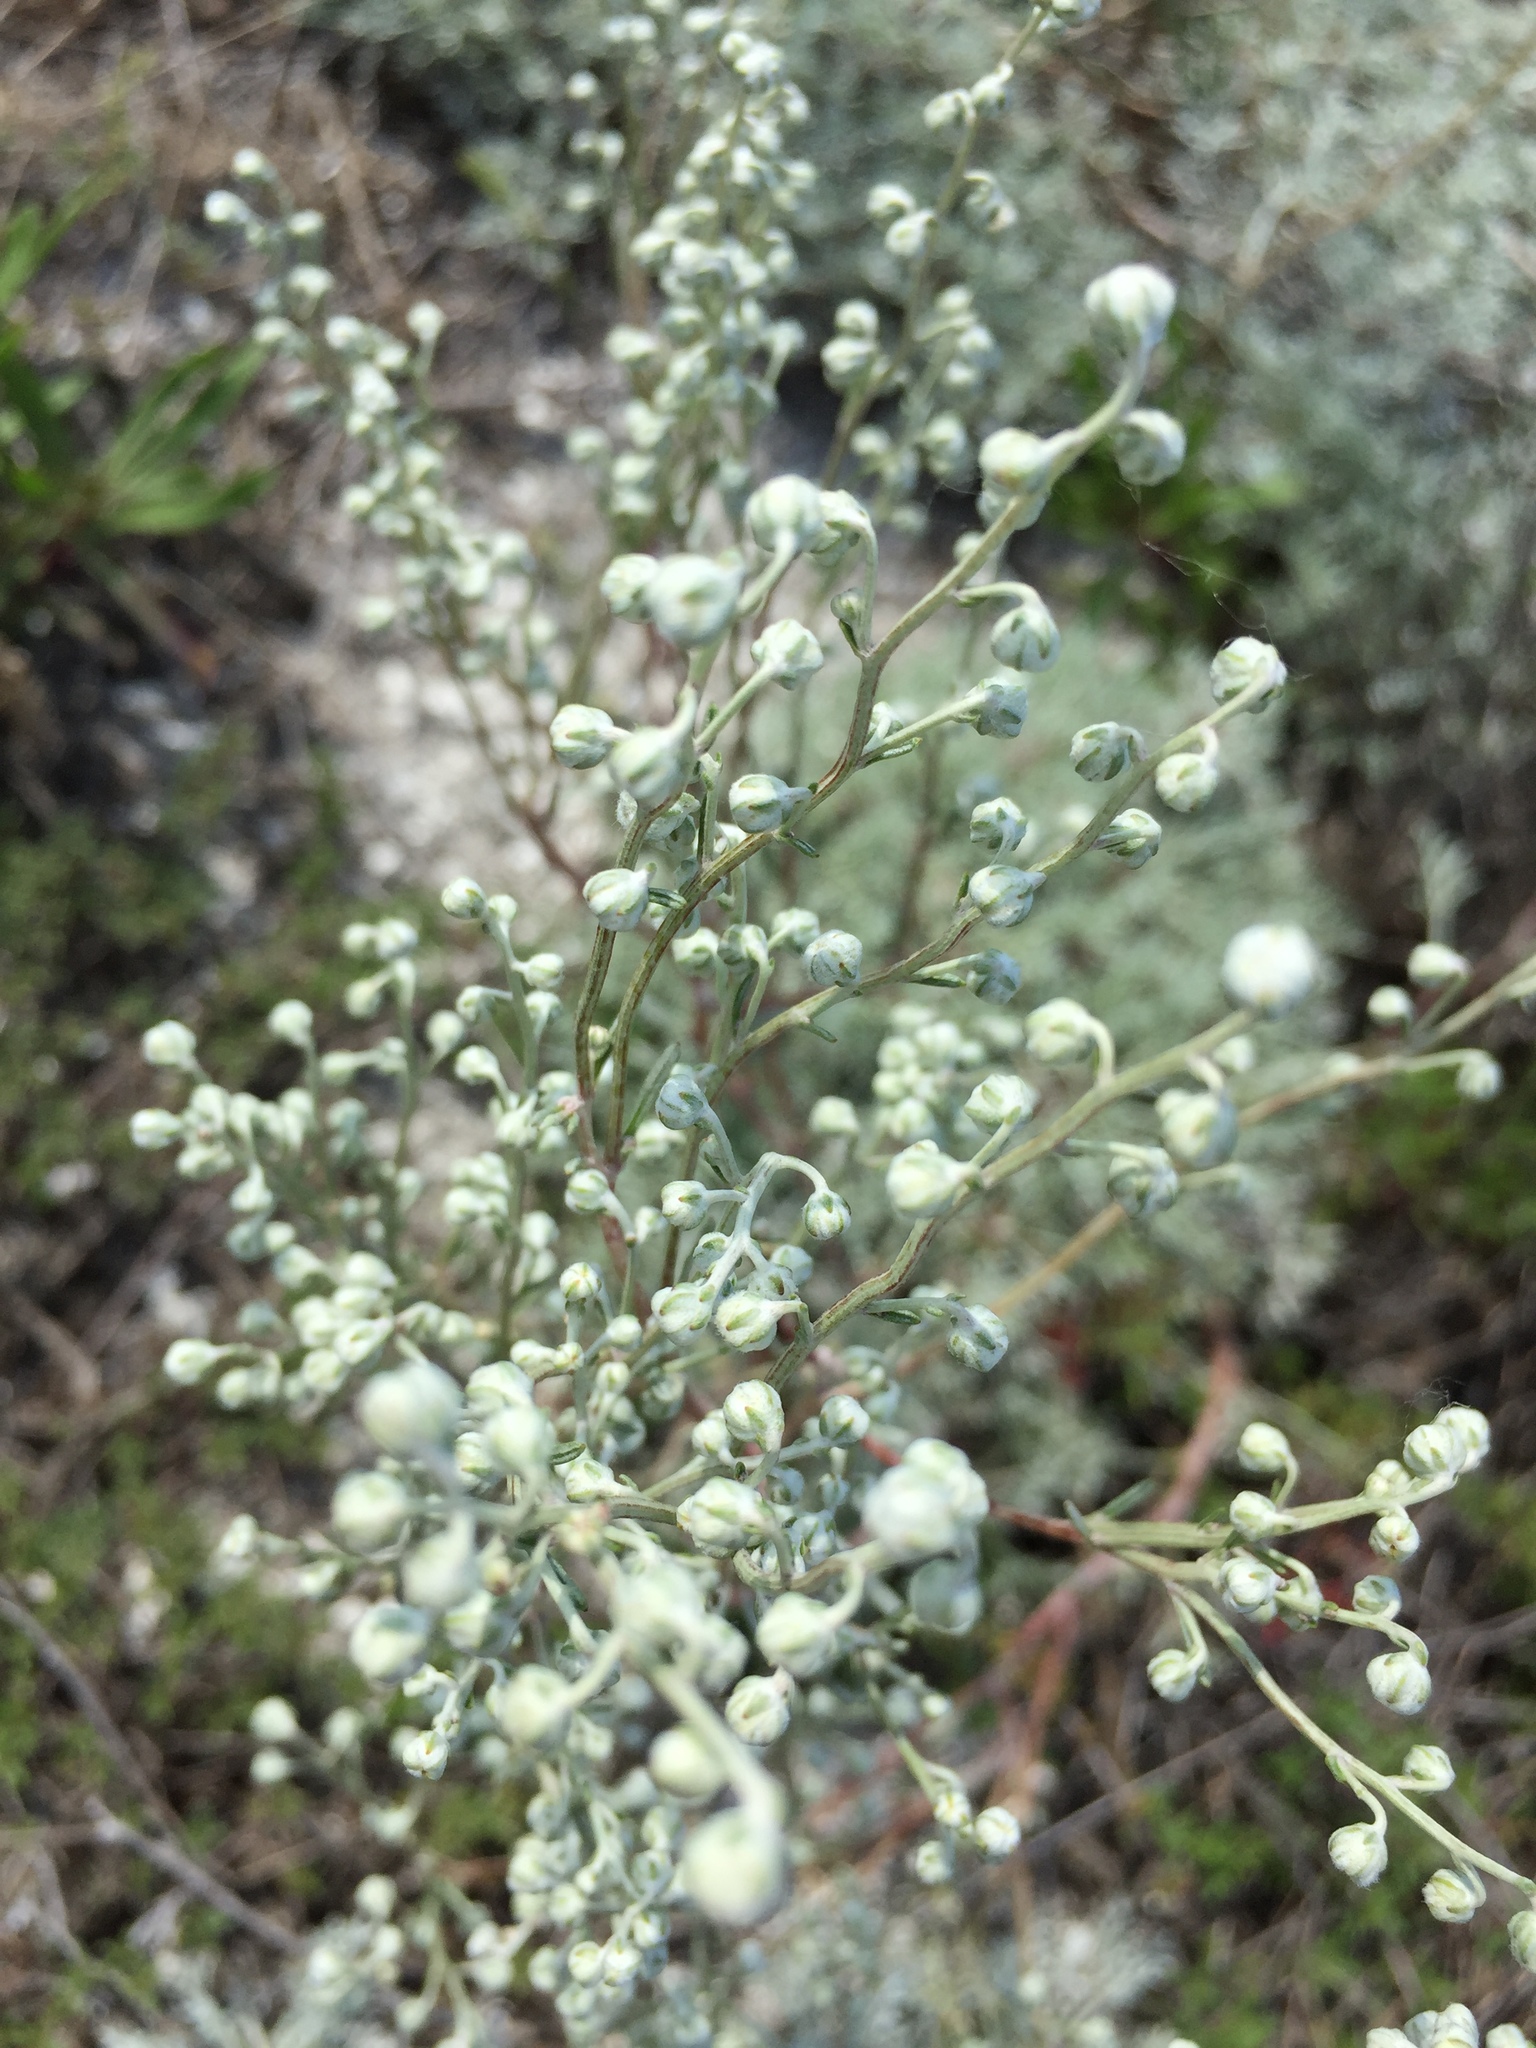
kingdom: Plantae
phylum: Tracheophyta
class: Magnoliopsida
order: Asterales
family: Asteraceae
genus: Artemisia
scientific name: Artemisia hololeuca
